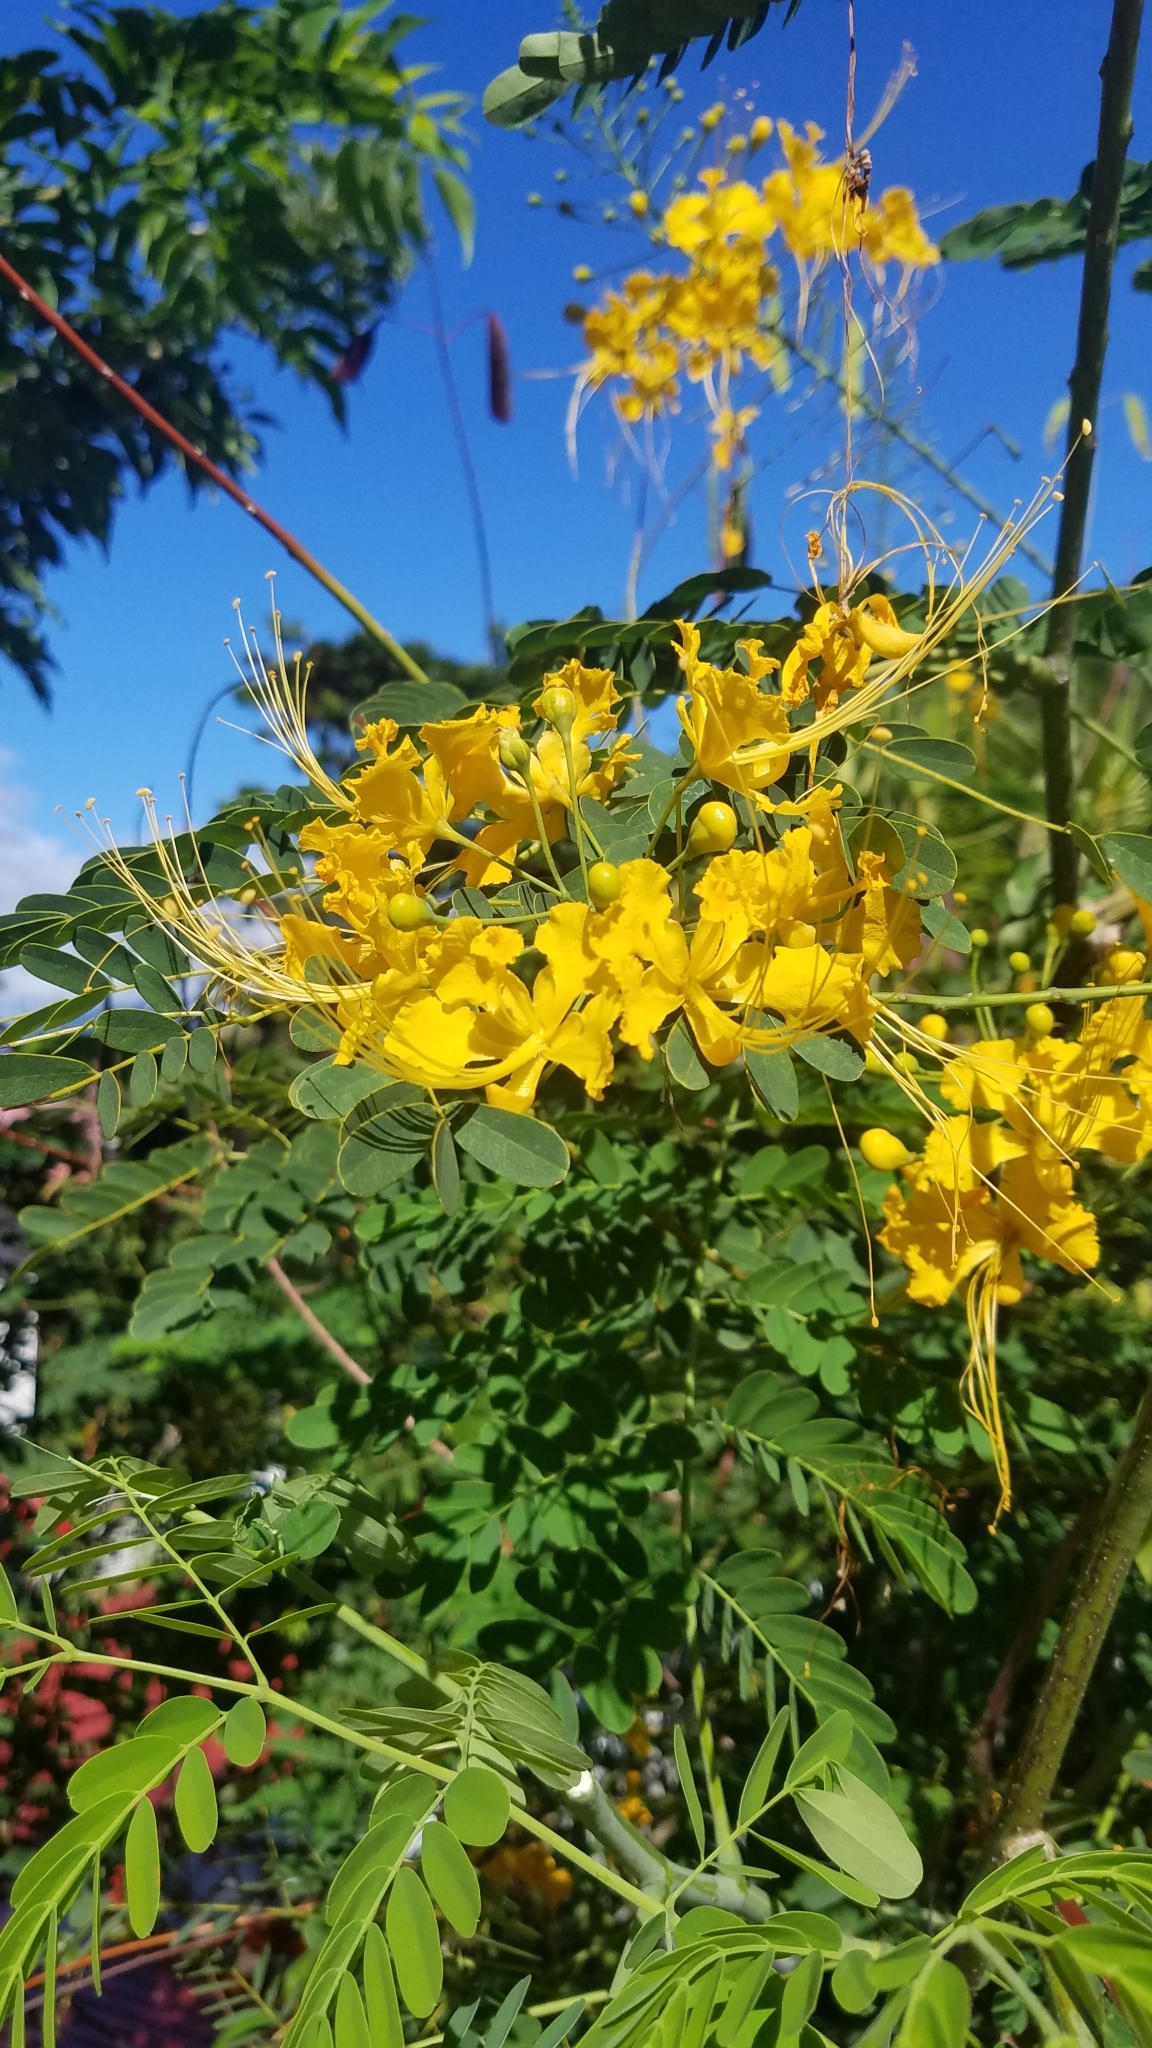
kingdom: Plantae
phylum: Tracheophyta
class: Magnoliopsida
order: Fabales
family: Fabaceae
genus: Caesalpinia
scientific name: Caesalpinia pulcherrima
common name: Pride-of-barbados
